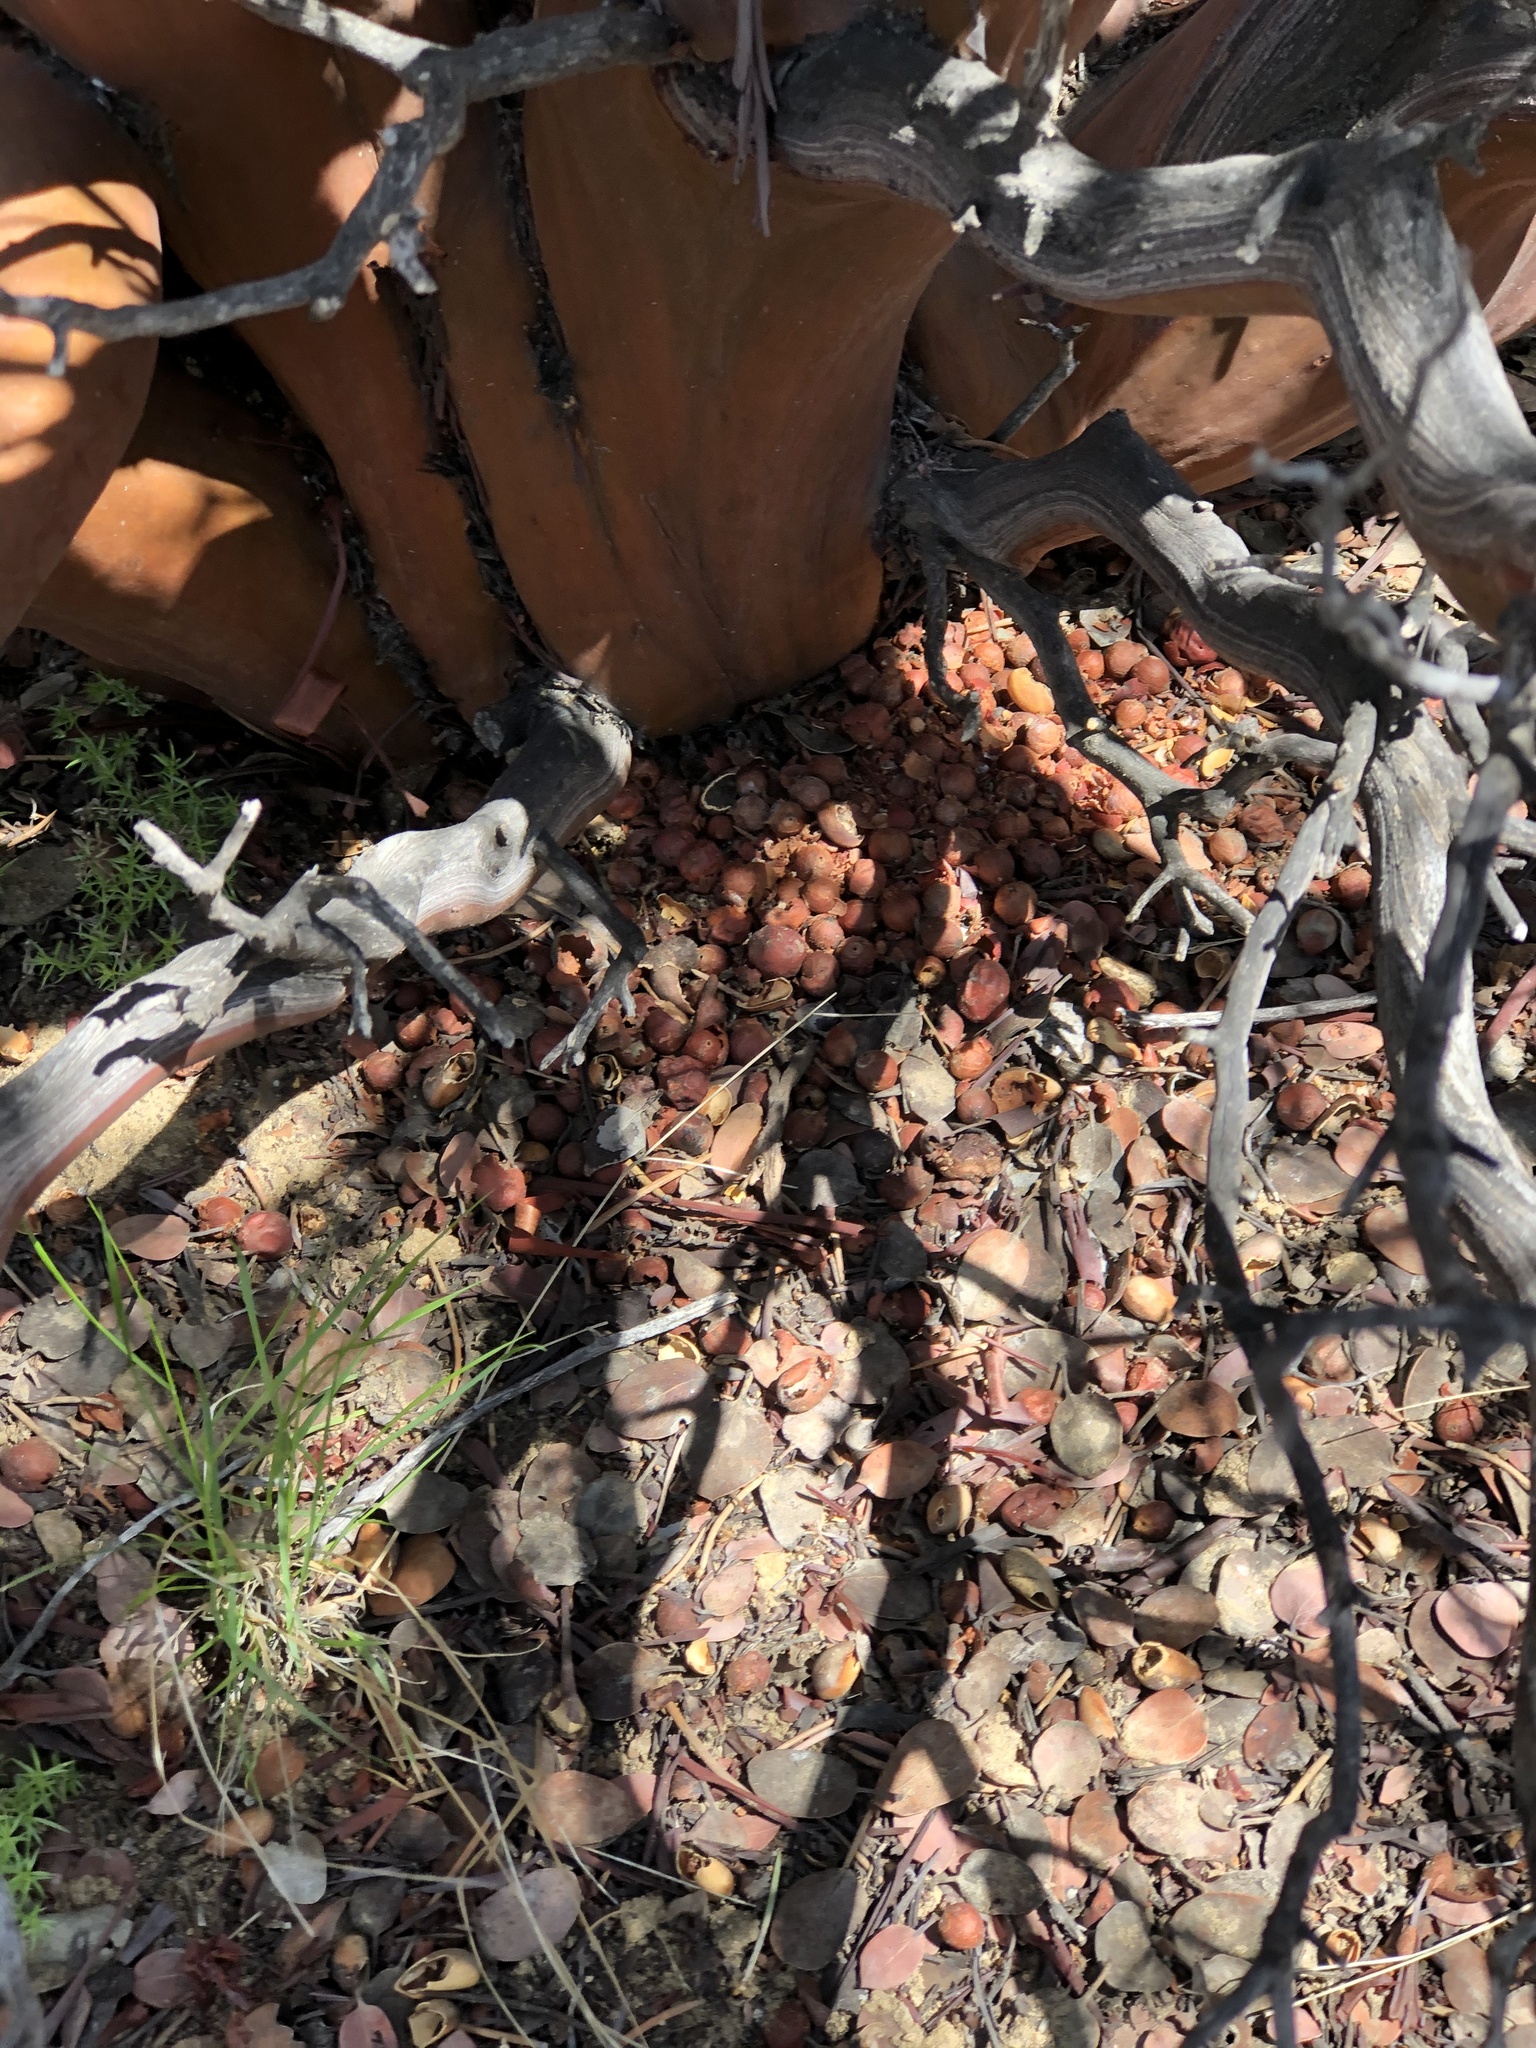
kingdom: Plantae
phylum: Tracheophyta
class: Magnoliopsida
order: Ericales
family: Ericaceae
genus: Arctostaphylos
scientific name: Arctostaphylos glauca
